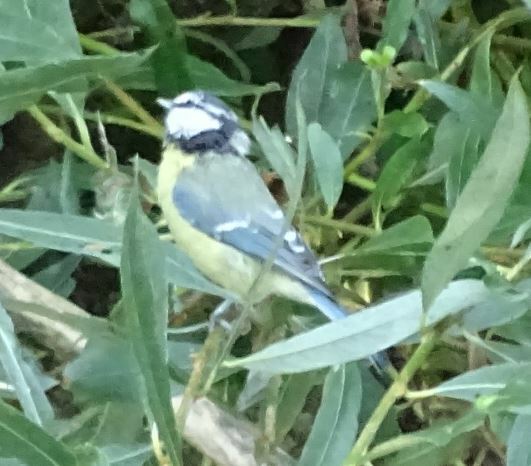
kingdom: Animalia
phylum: Chordata
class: Aves
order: Passeriformes
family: Paridae
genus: Cyanistes
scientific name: Cyanistes caeruleus
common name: Eurasian blue tit
